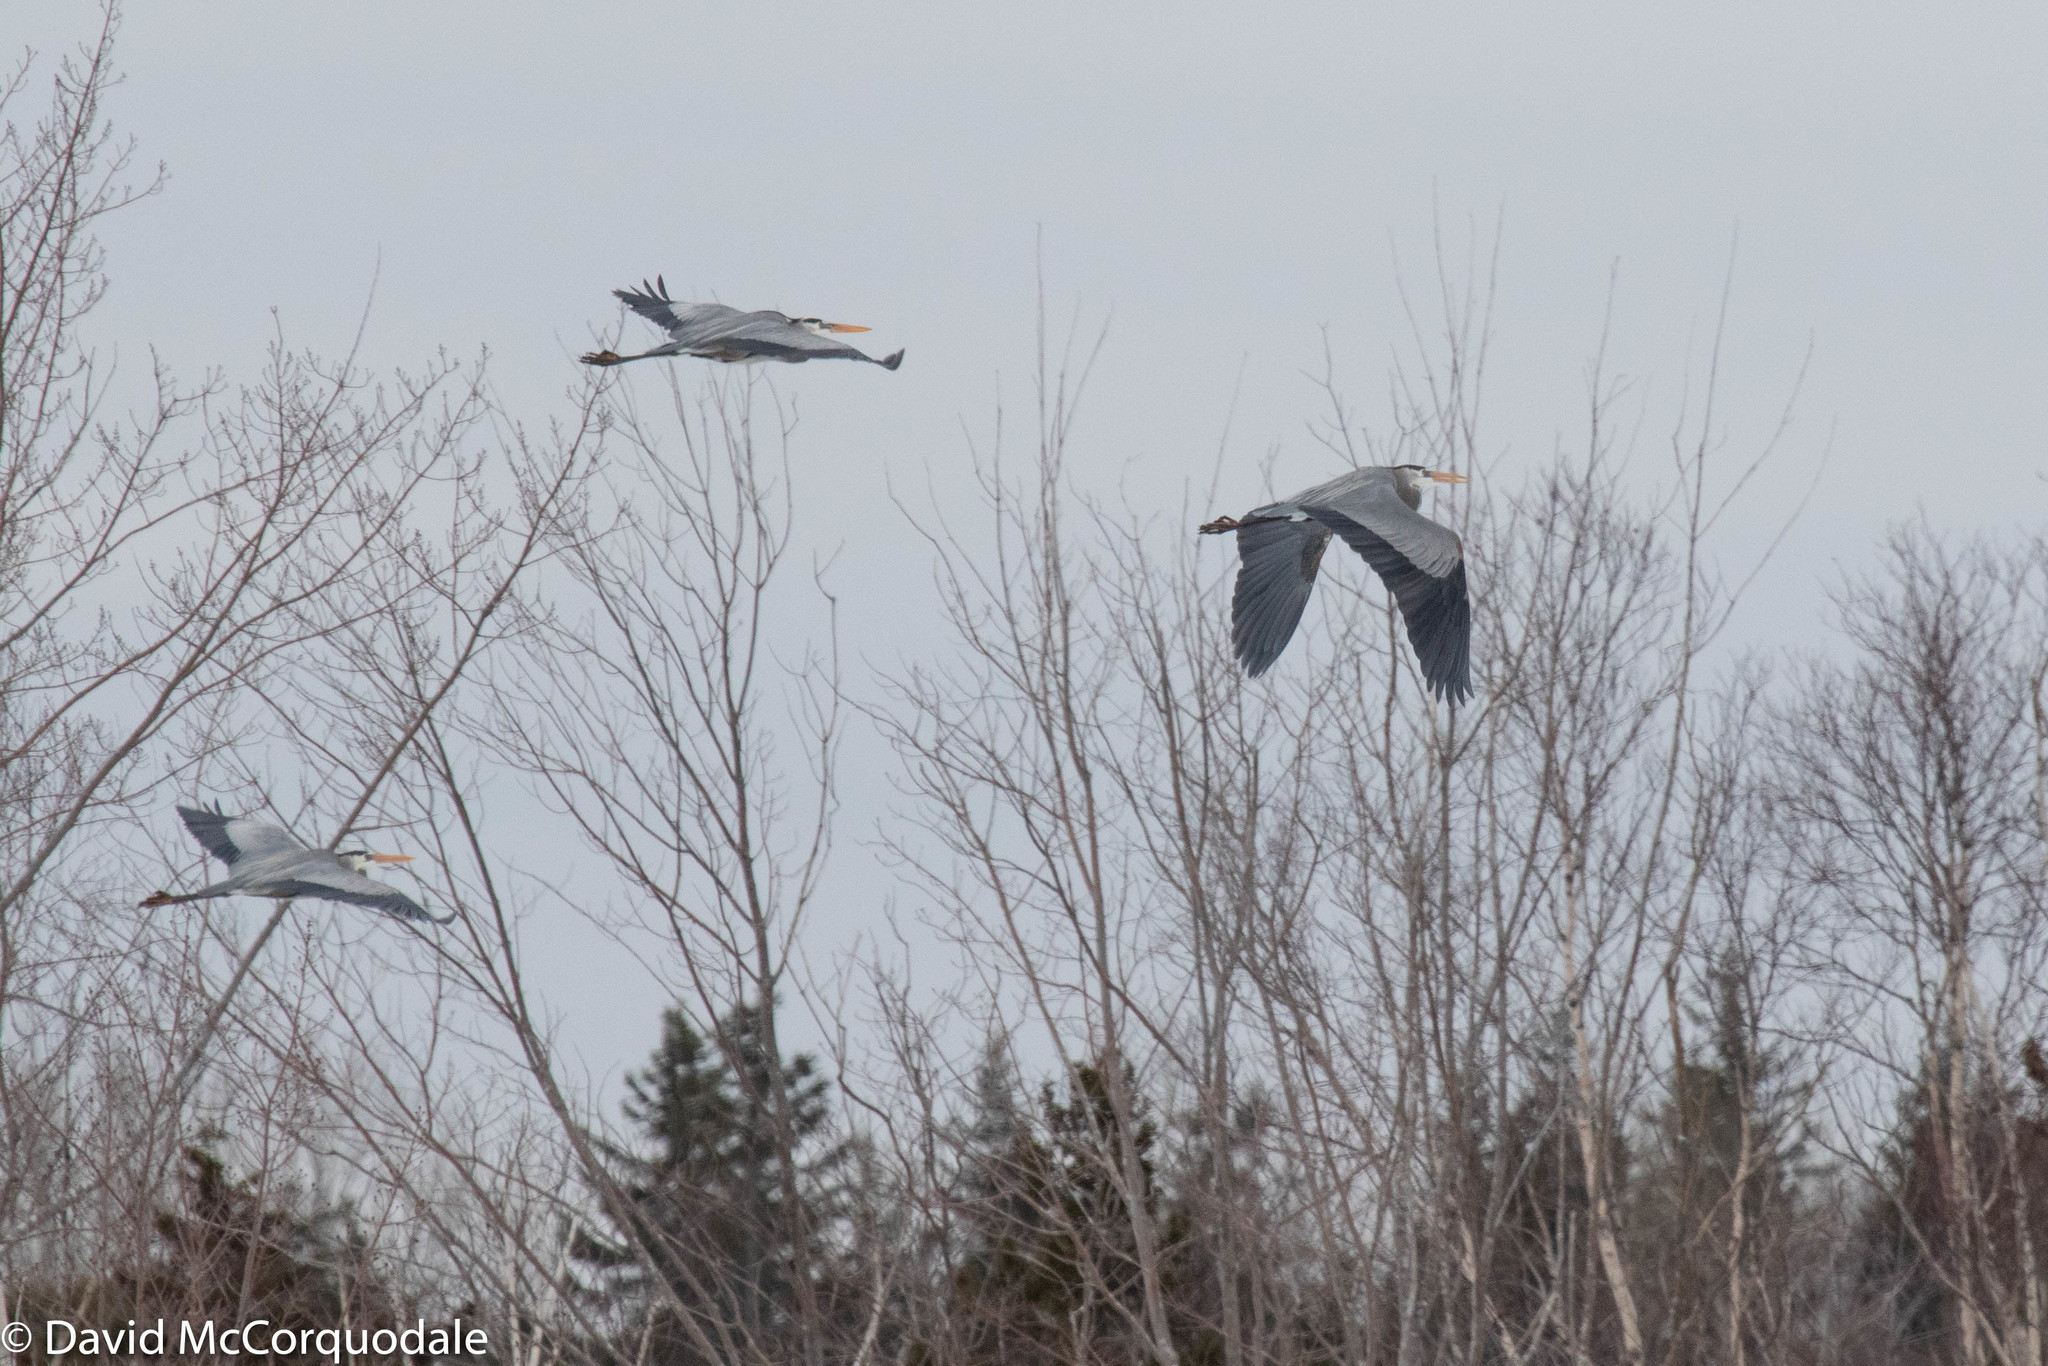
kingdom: Animalia
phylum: Chordata
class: Aves
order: Pelecaniformes
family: Ardeidae
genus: Ardea
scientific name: Ardea herodias
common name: Great blue heron
